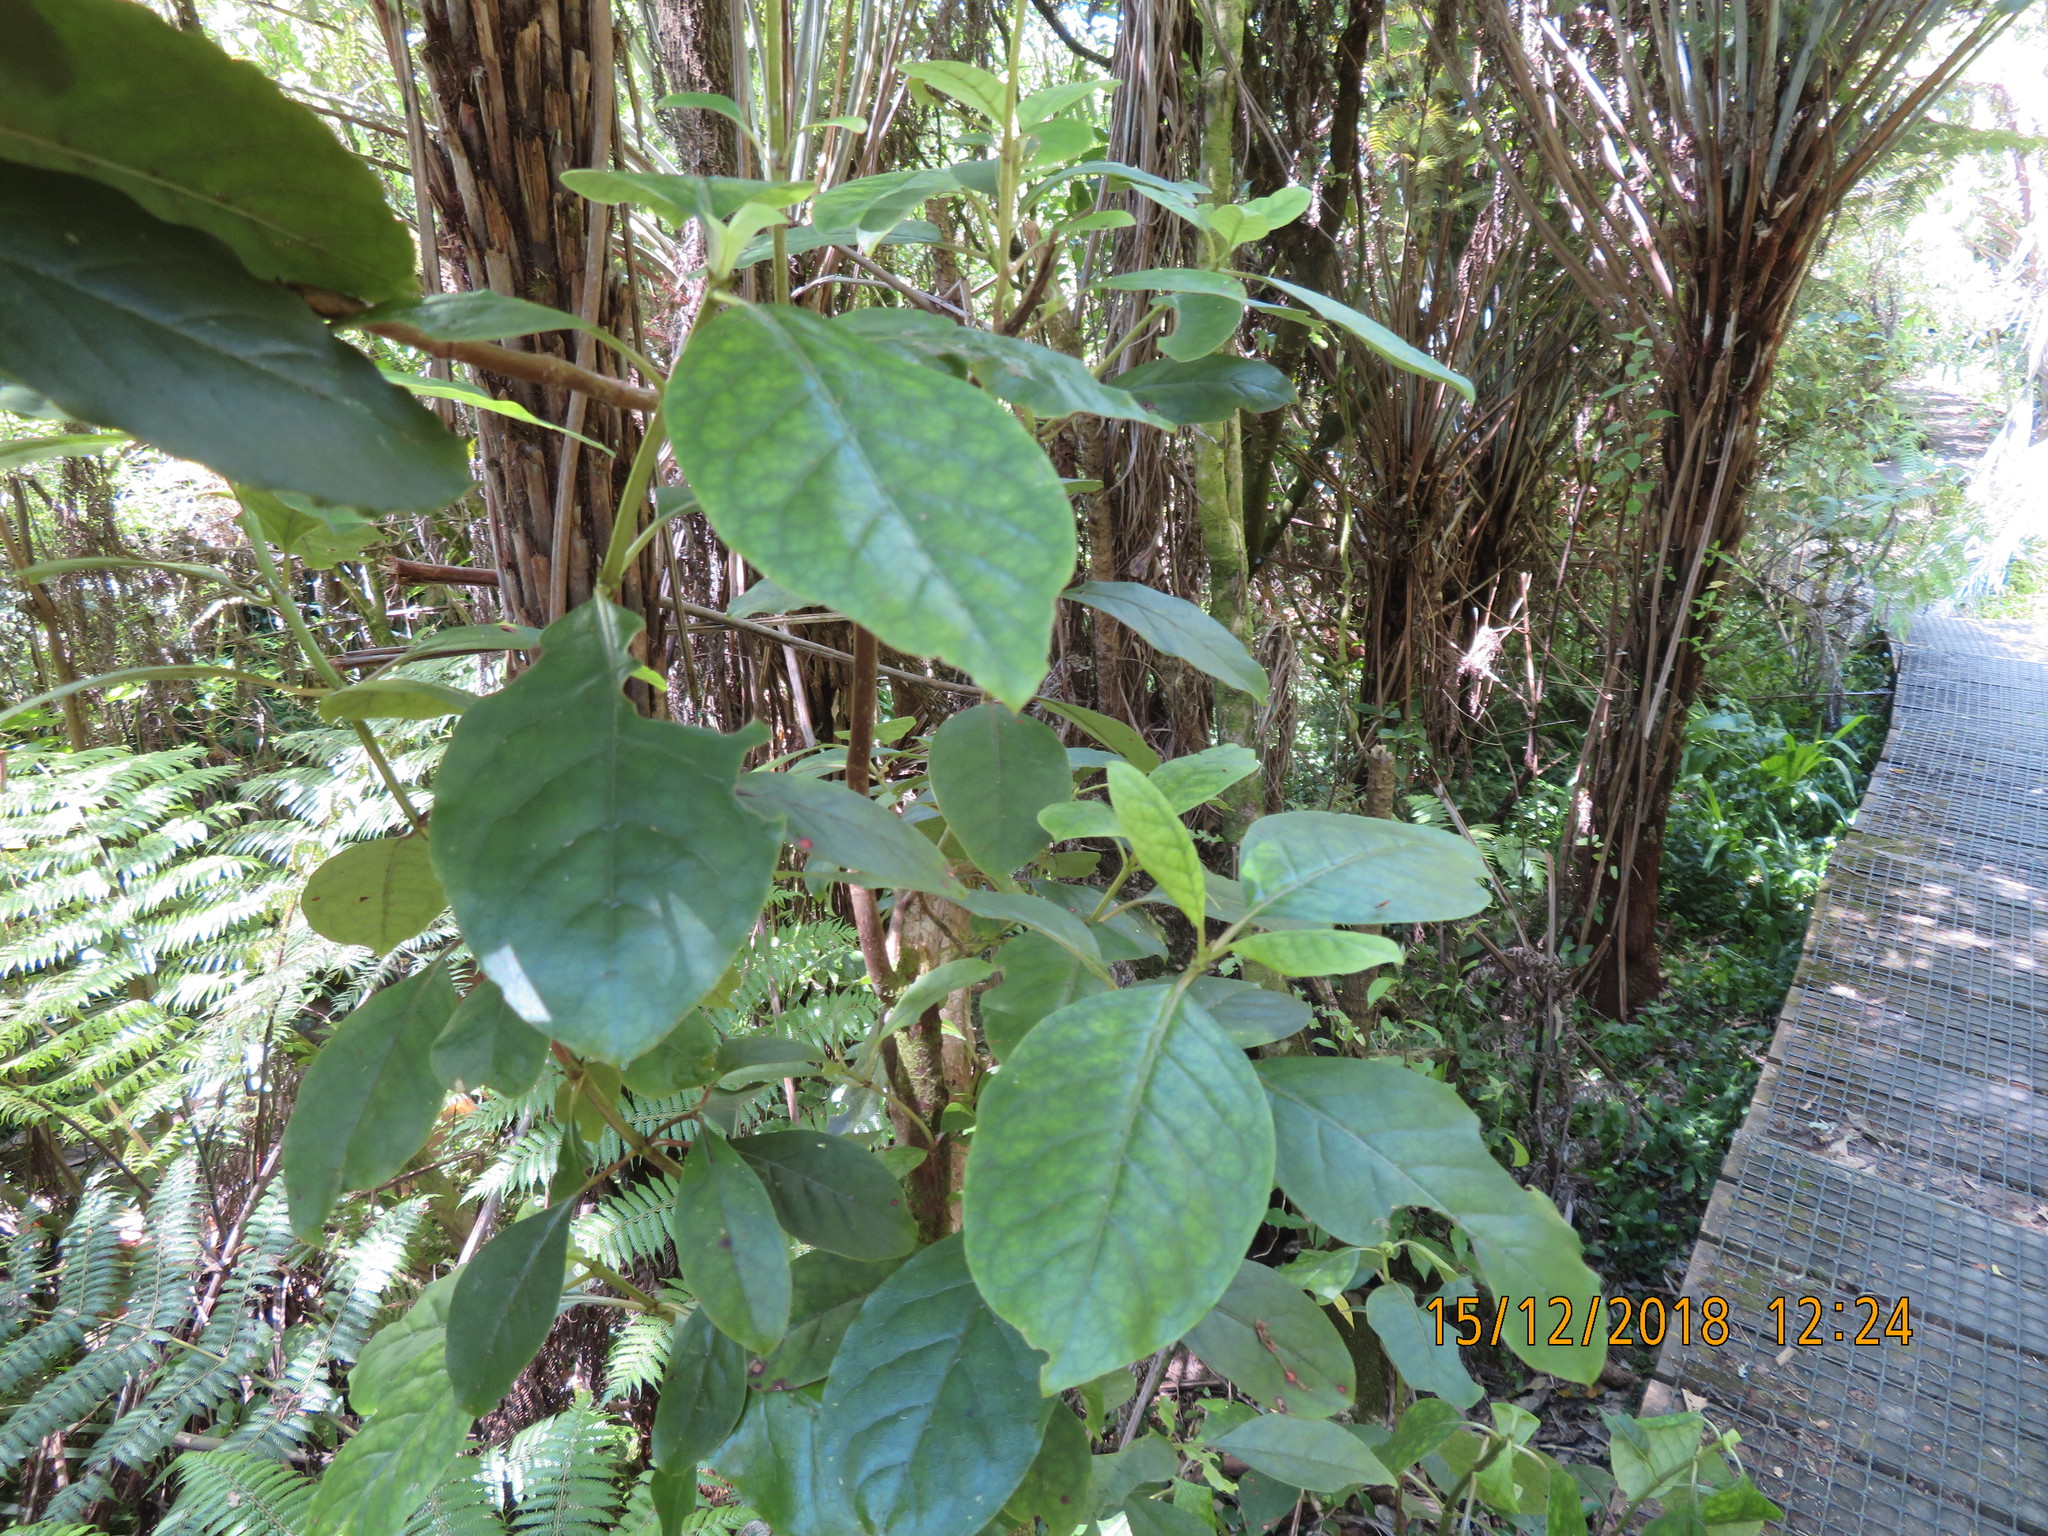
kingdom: Plantae
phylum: Tracheophyta
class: Magnoliopsida
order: Gentianales
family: Rubiaceae
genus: Coprosma
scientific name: Coprosma autumnalis
